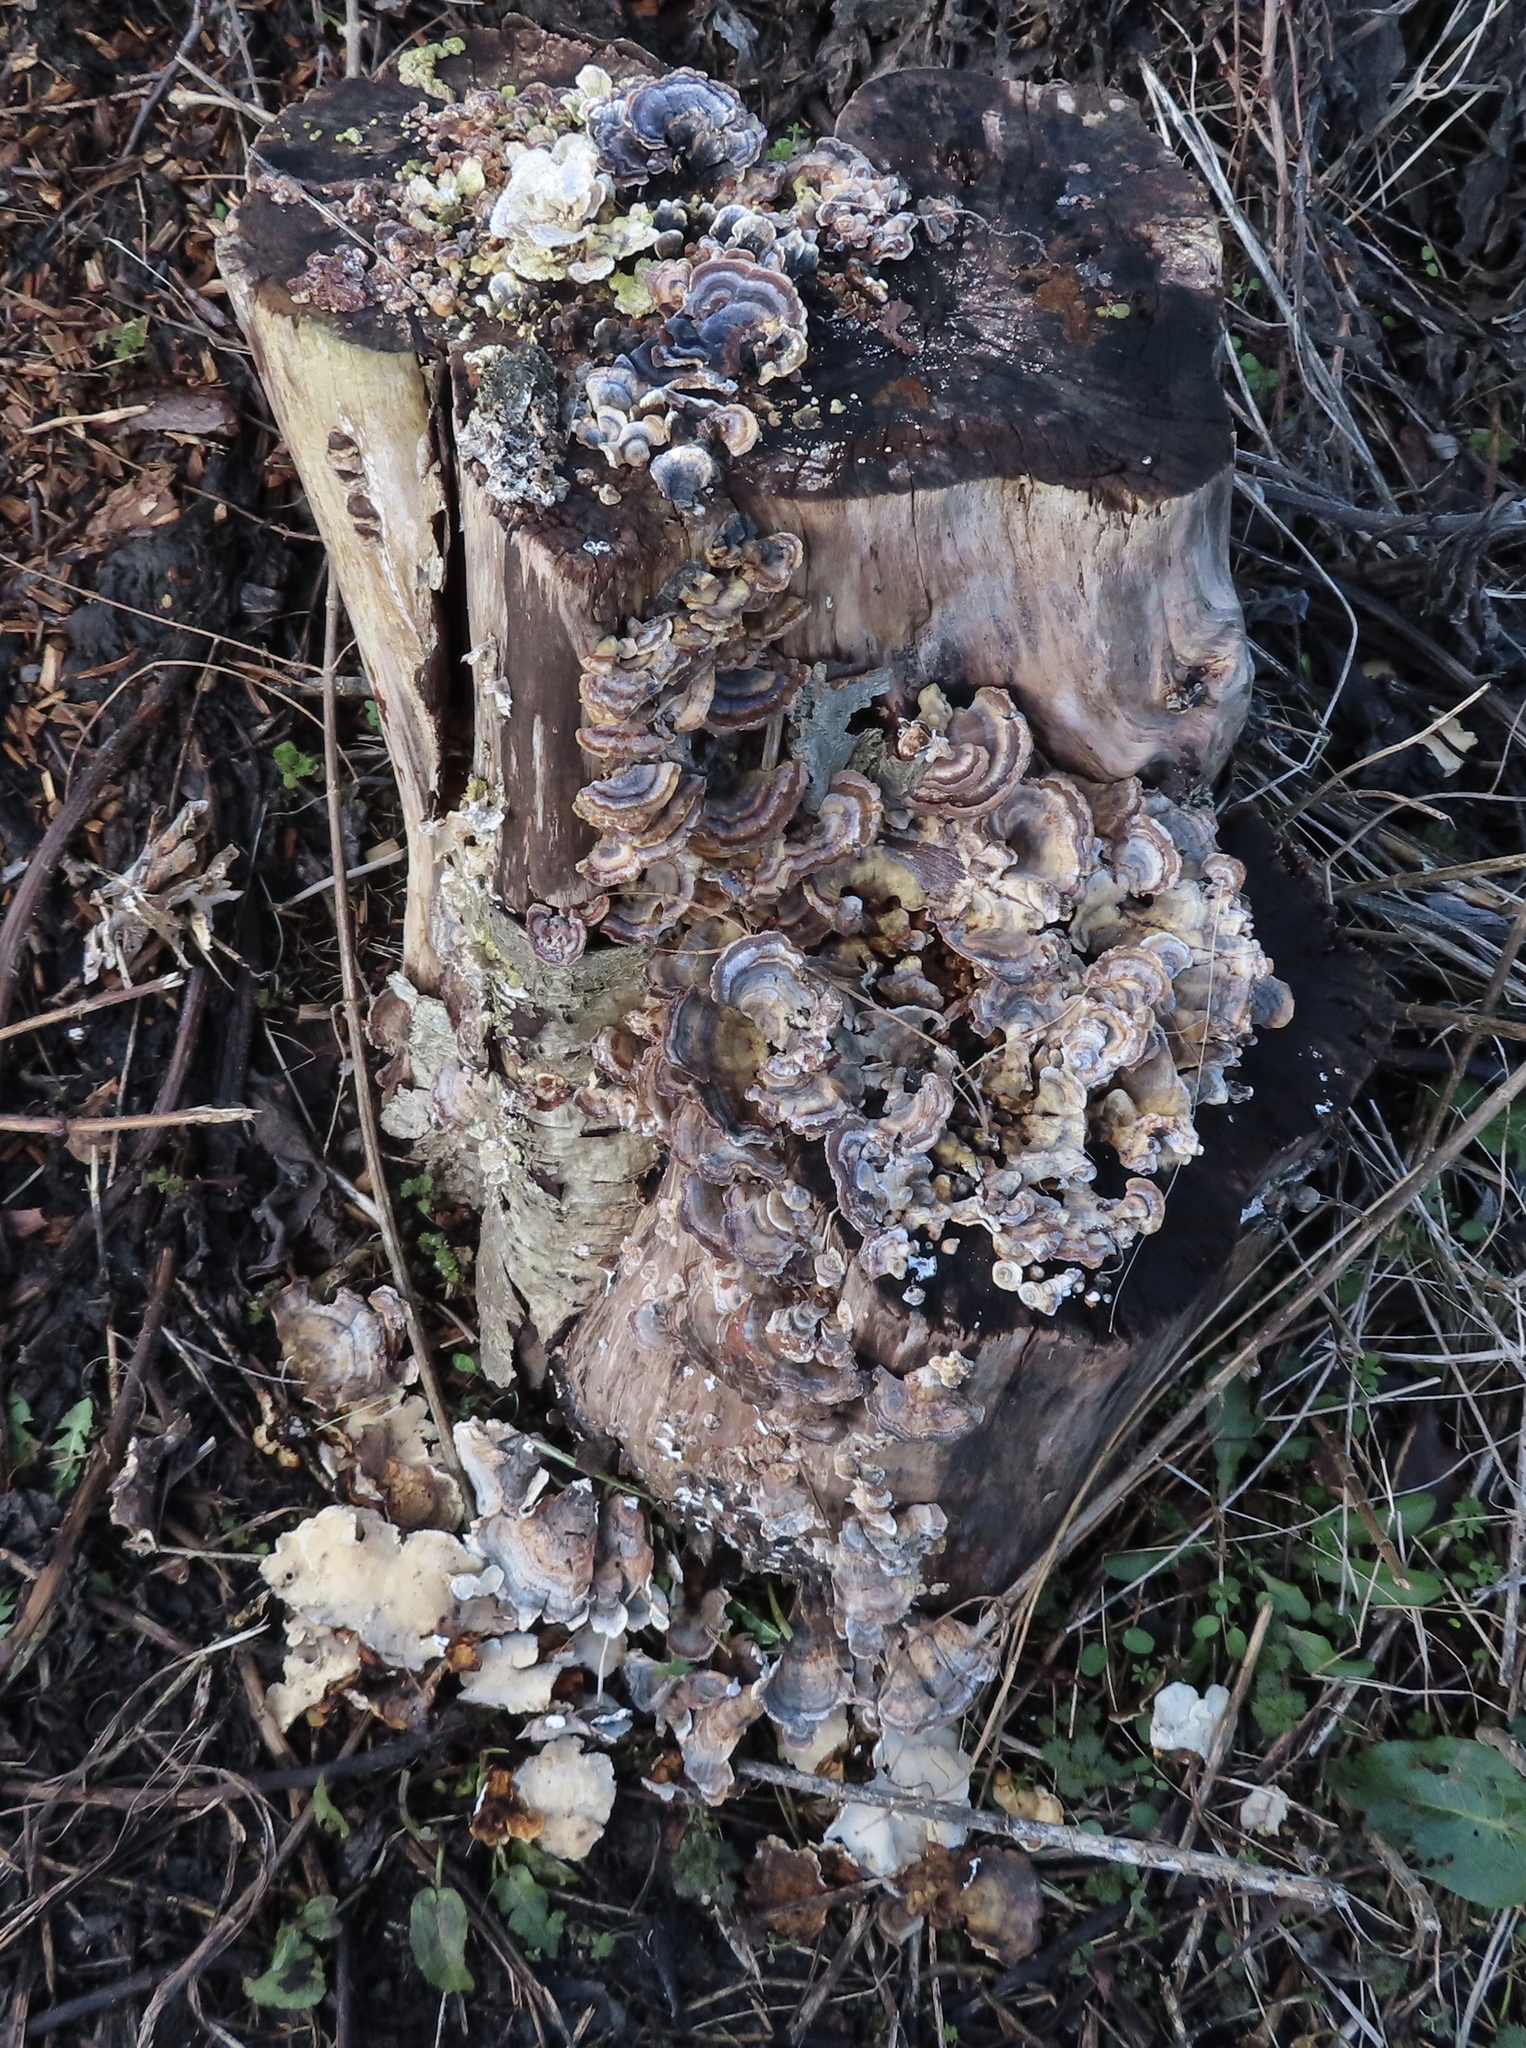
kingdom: Fungi
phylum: Basidiomycota
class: Agaricomycetes
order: Polyporales
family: Polyporaceae
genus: Trametes
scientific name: Trametes versicolor
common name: Turkeytail
